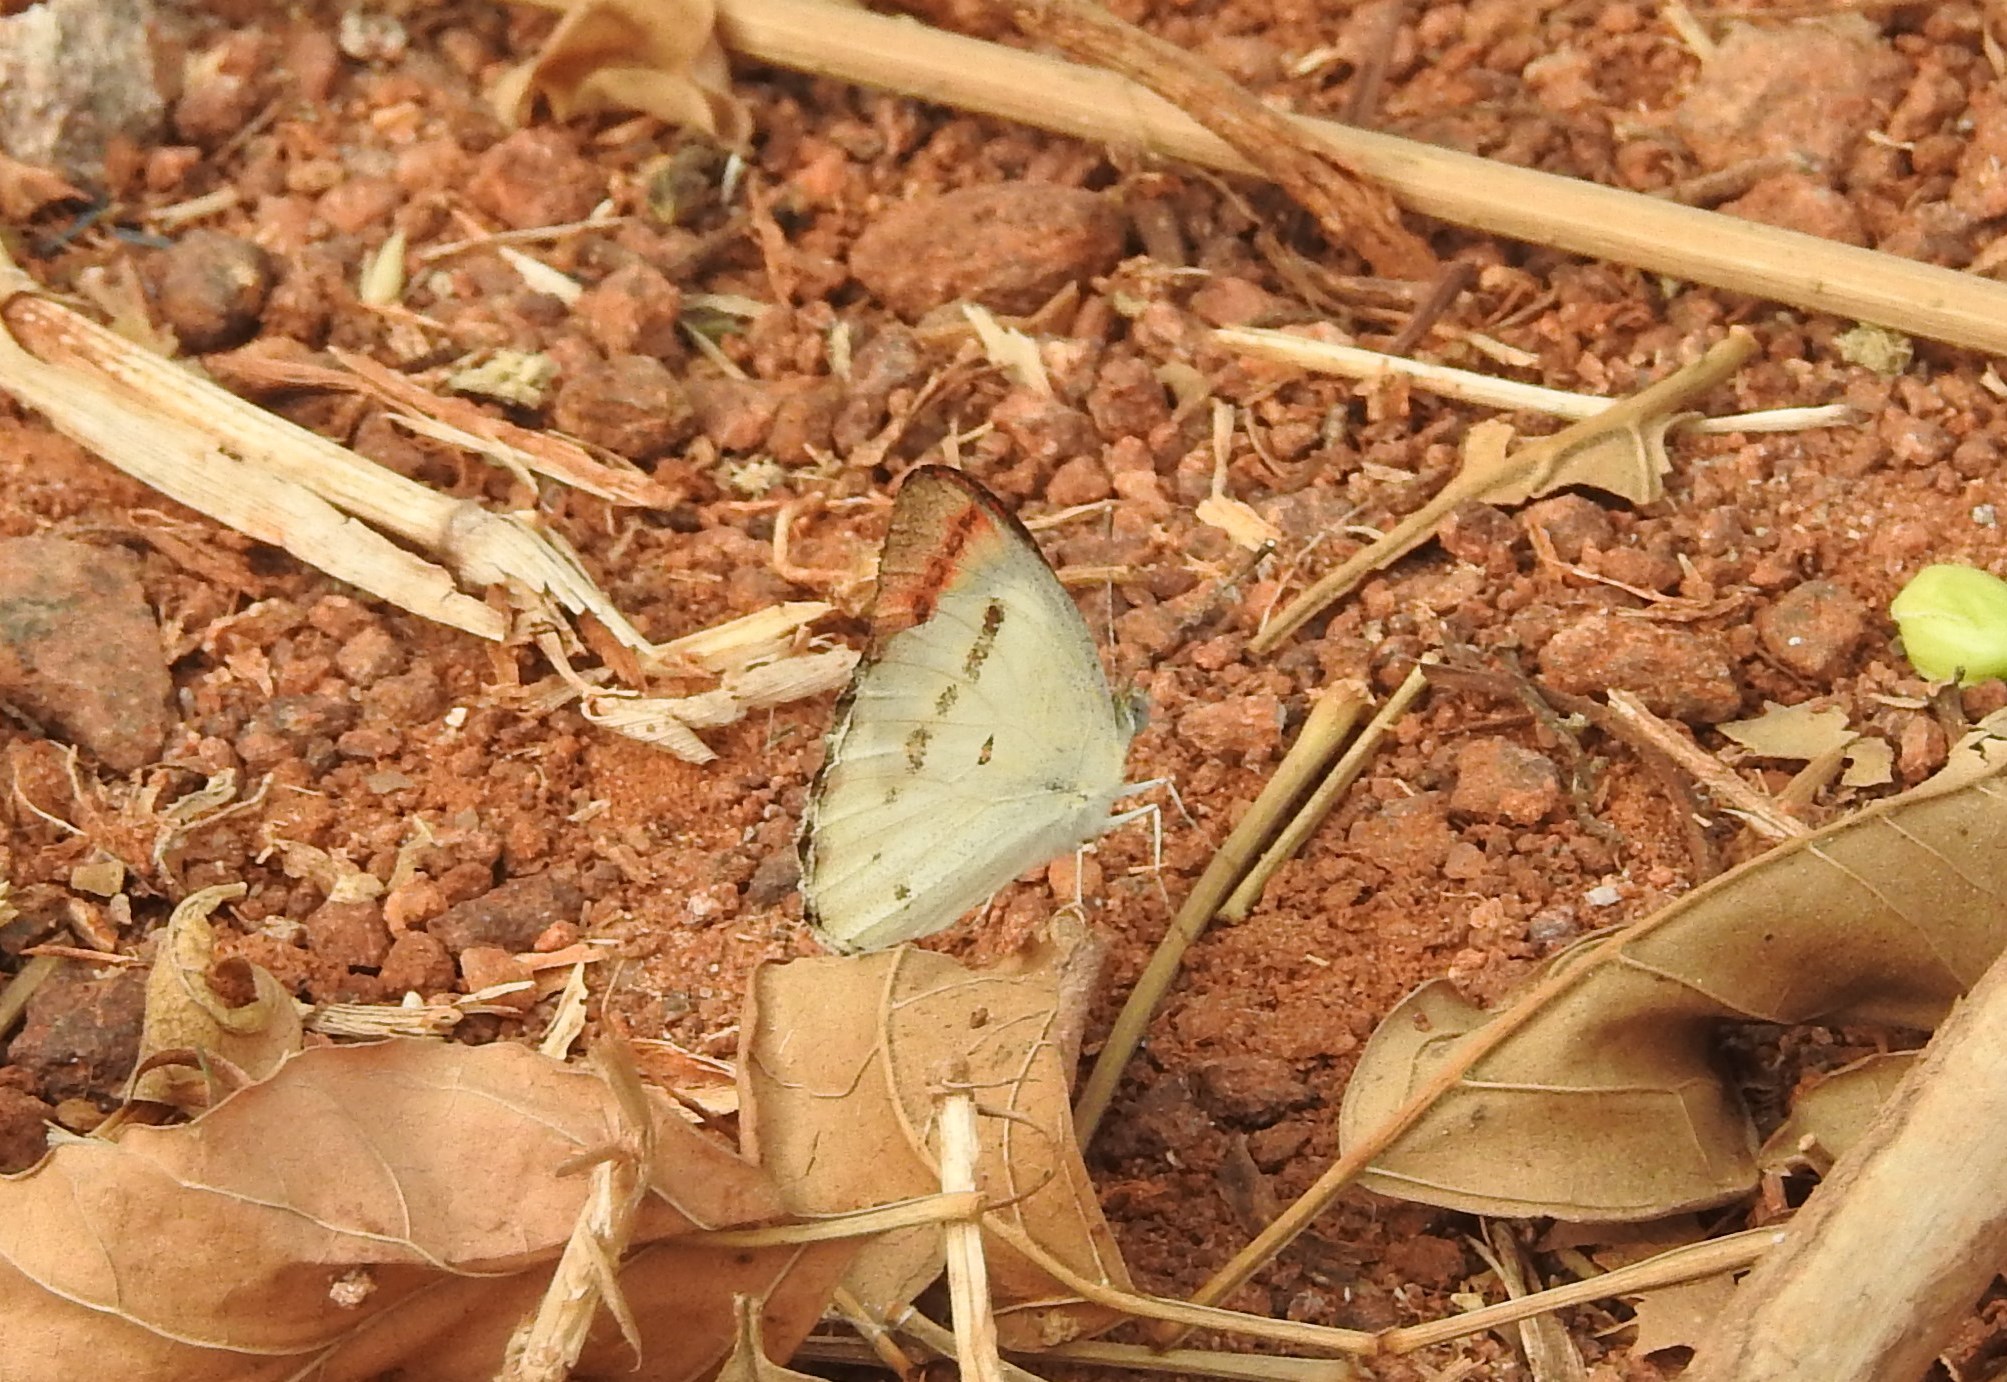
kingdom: Animalia
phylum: Arthropoda
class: Insecta
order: Lepidoptera
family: Pieridae
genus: Colotis
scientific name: Colotis danae
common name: Crimson tip
